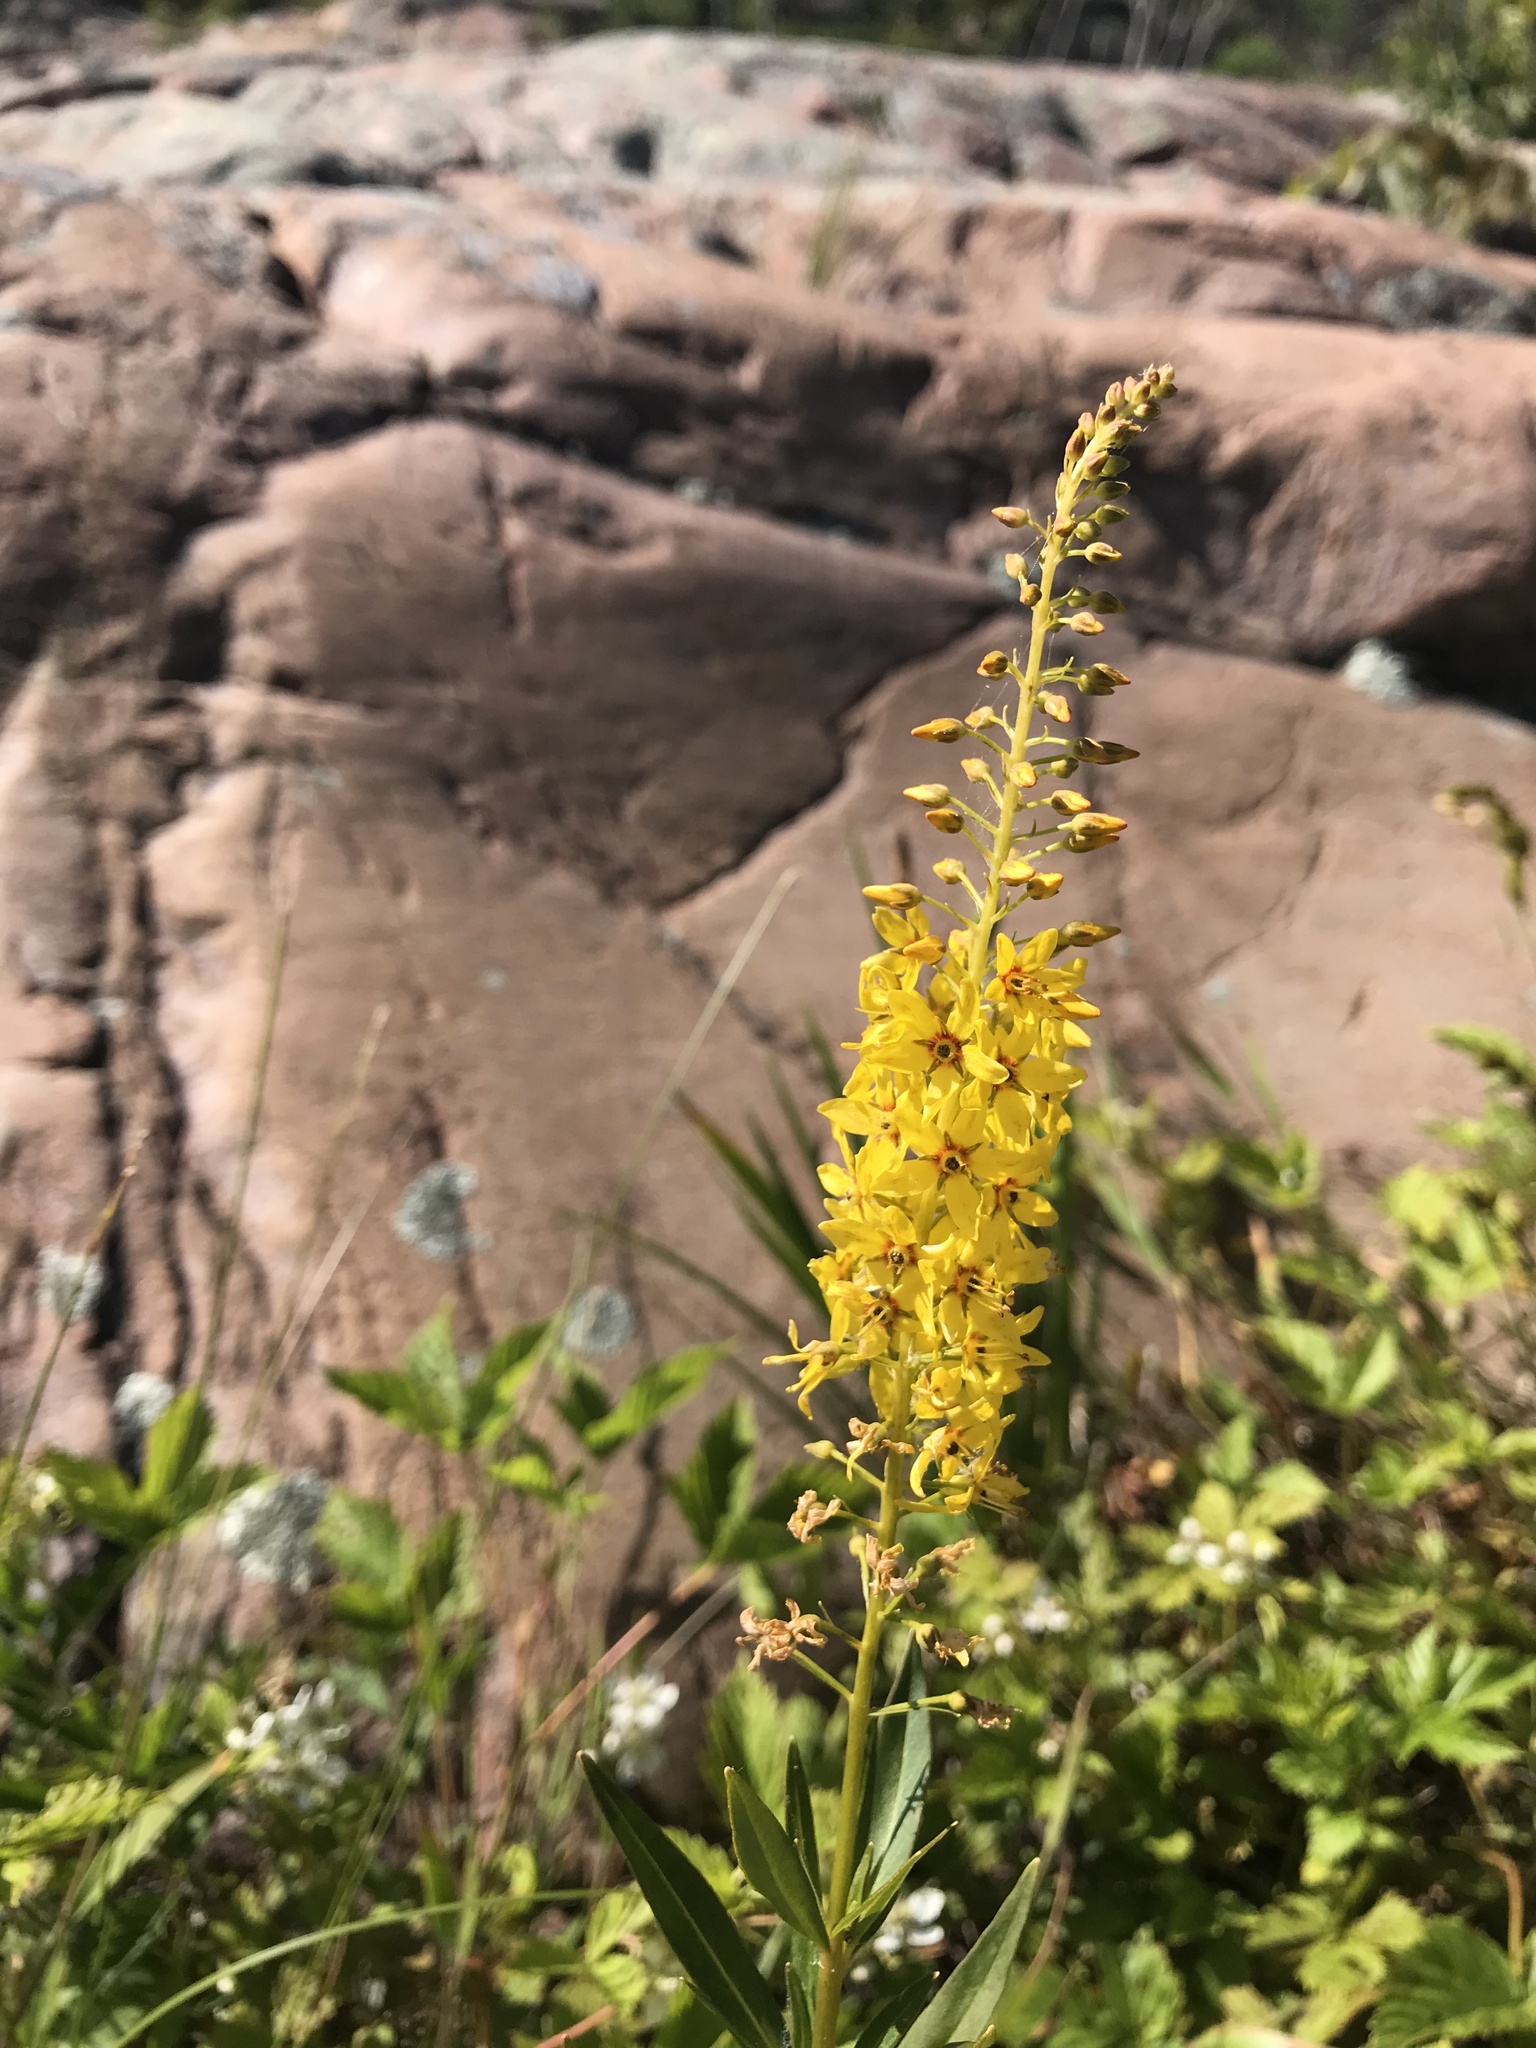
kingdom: Plantae
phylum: Tracheophyta
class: Magnoliopsida
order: Ericales
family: Primulaceae
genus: Lysimachia
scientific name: Lysimachia terrestris
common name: Lake loosestrife
